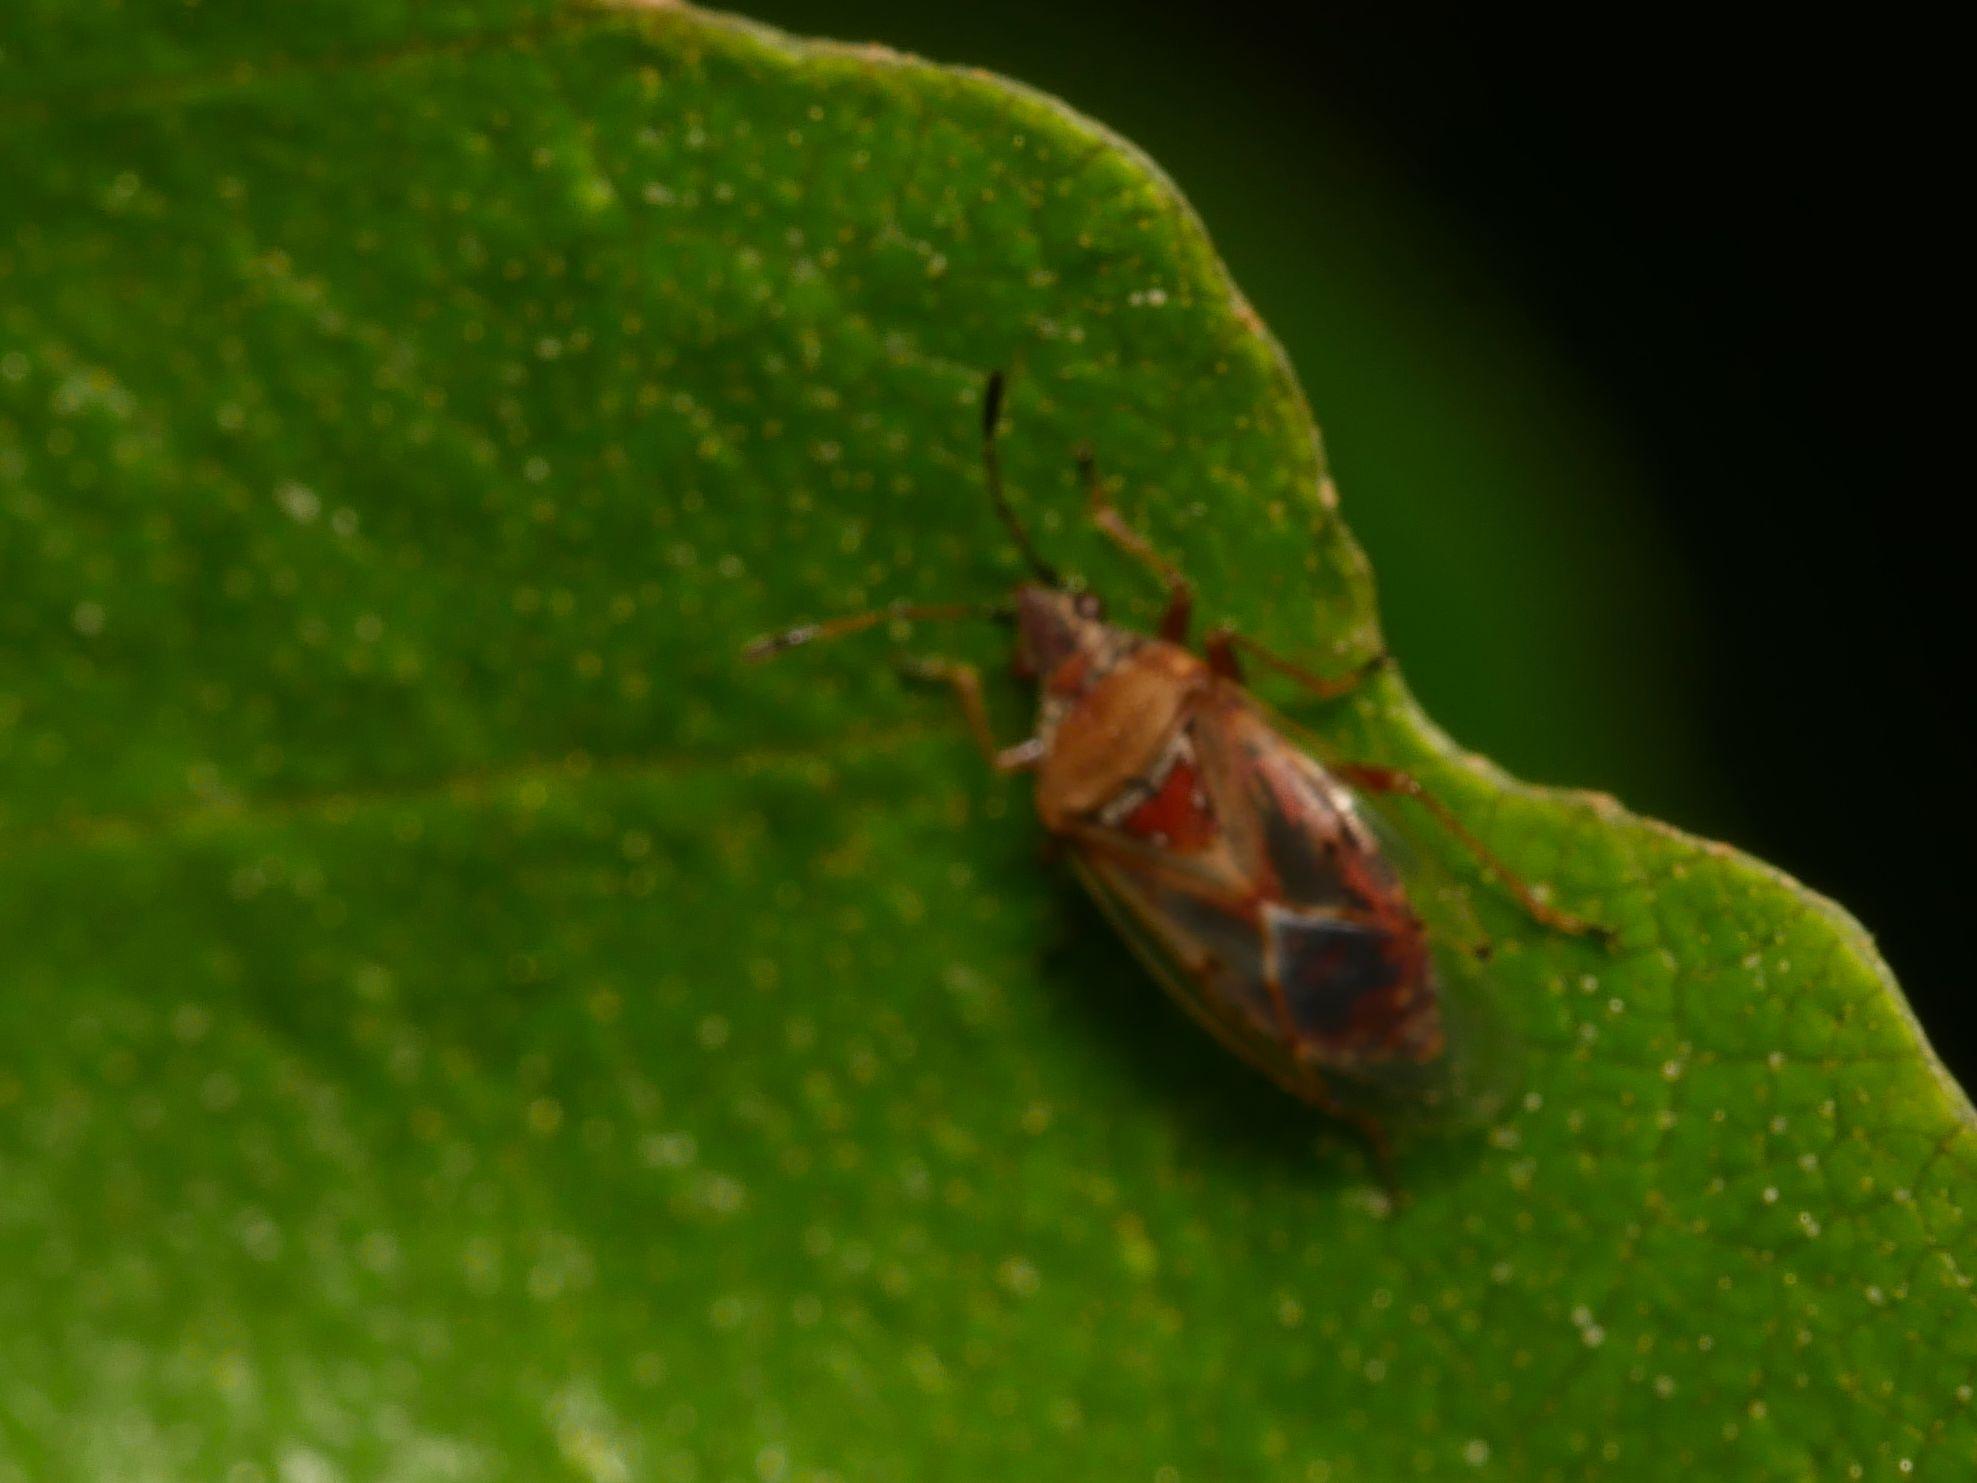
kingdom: Animalia
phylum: Arthropoda
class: Insecta
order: Hemiptera
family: Lygaeidae
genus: Kleidocerys
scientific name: Kleidocerys resedae
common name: Birch catkin bug
